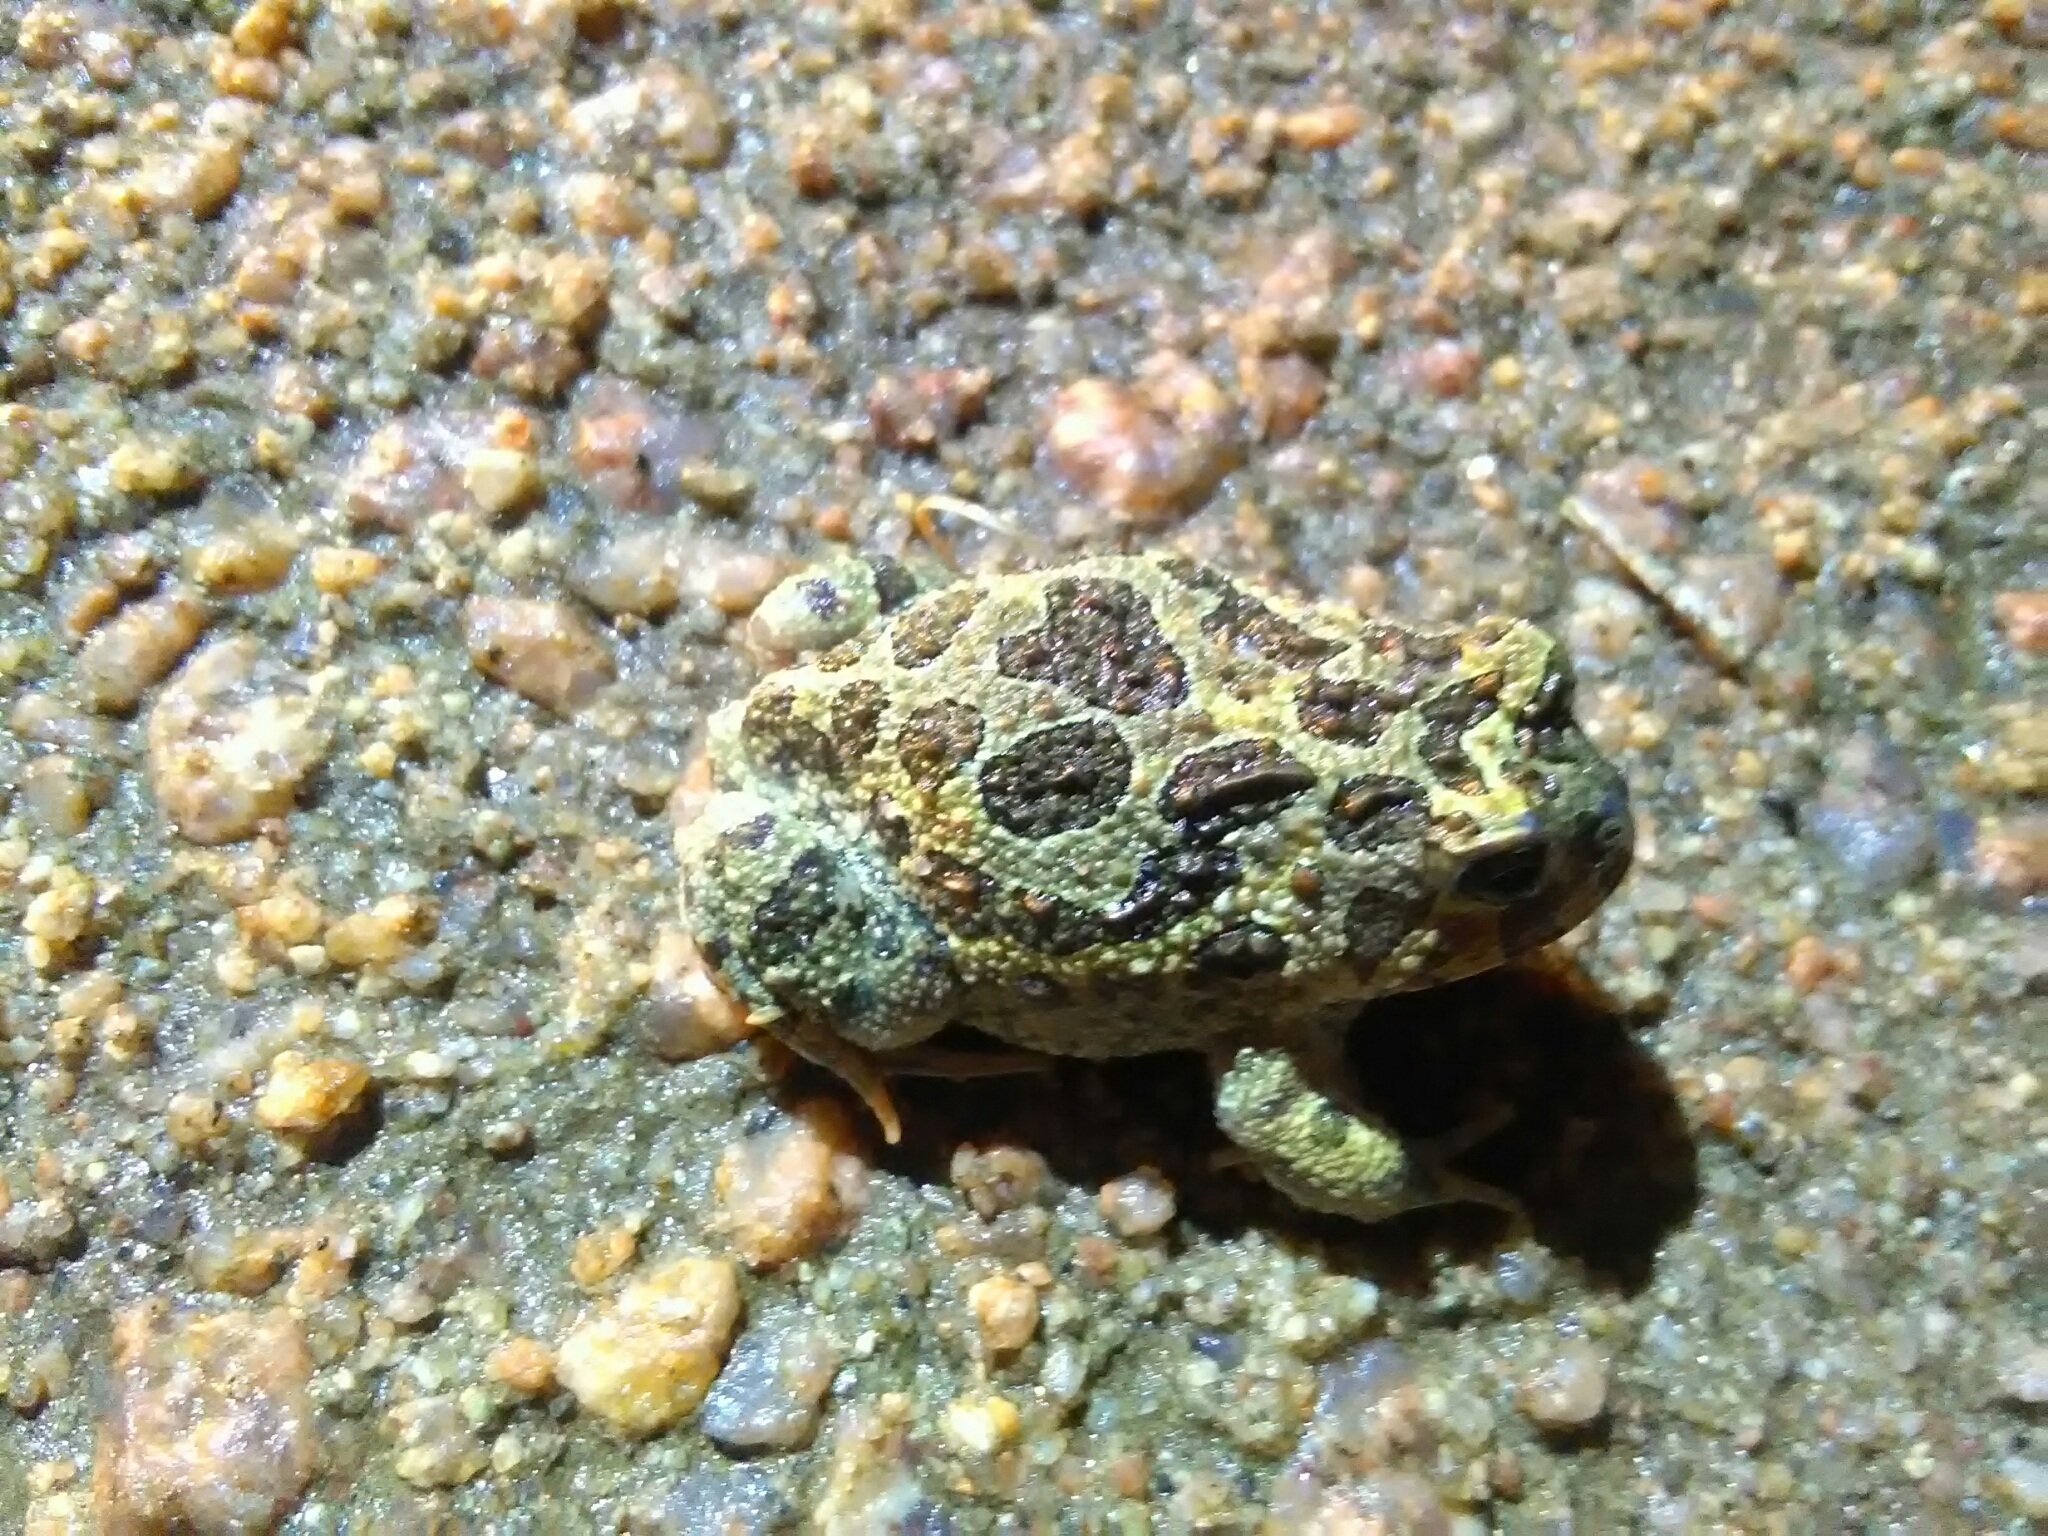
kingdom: Animalia
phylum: Chordata
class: Amphibia
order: Anura
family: Odontophrynidae
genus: Odontophrynus
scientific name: Odontophrynus
